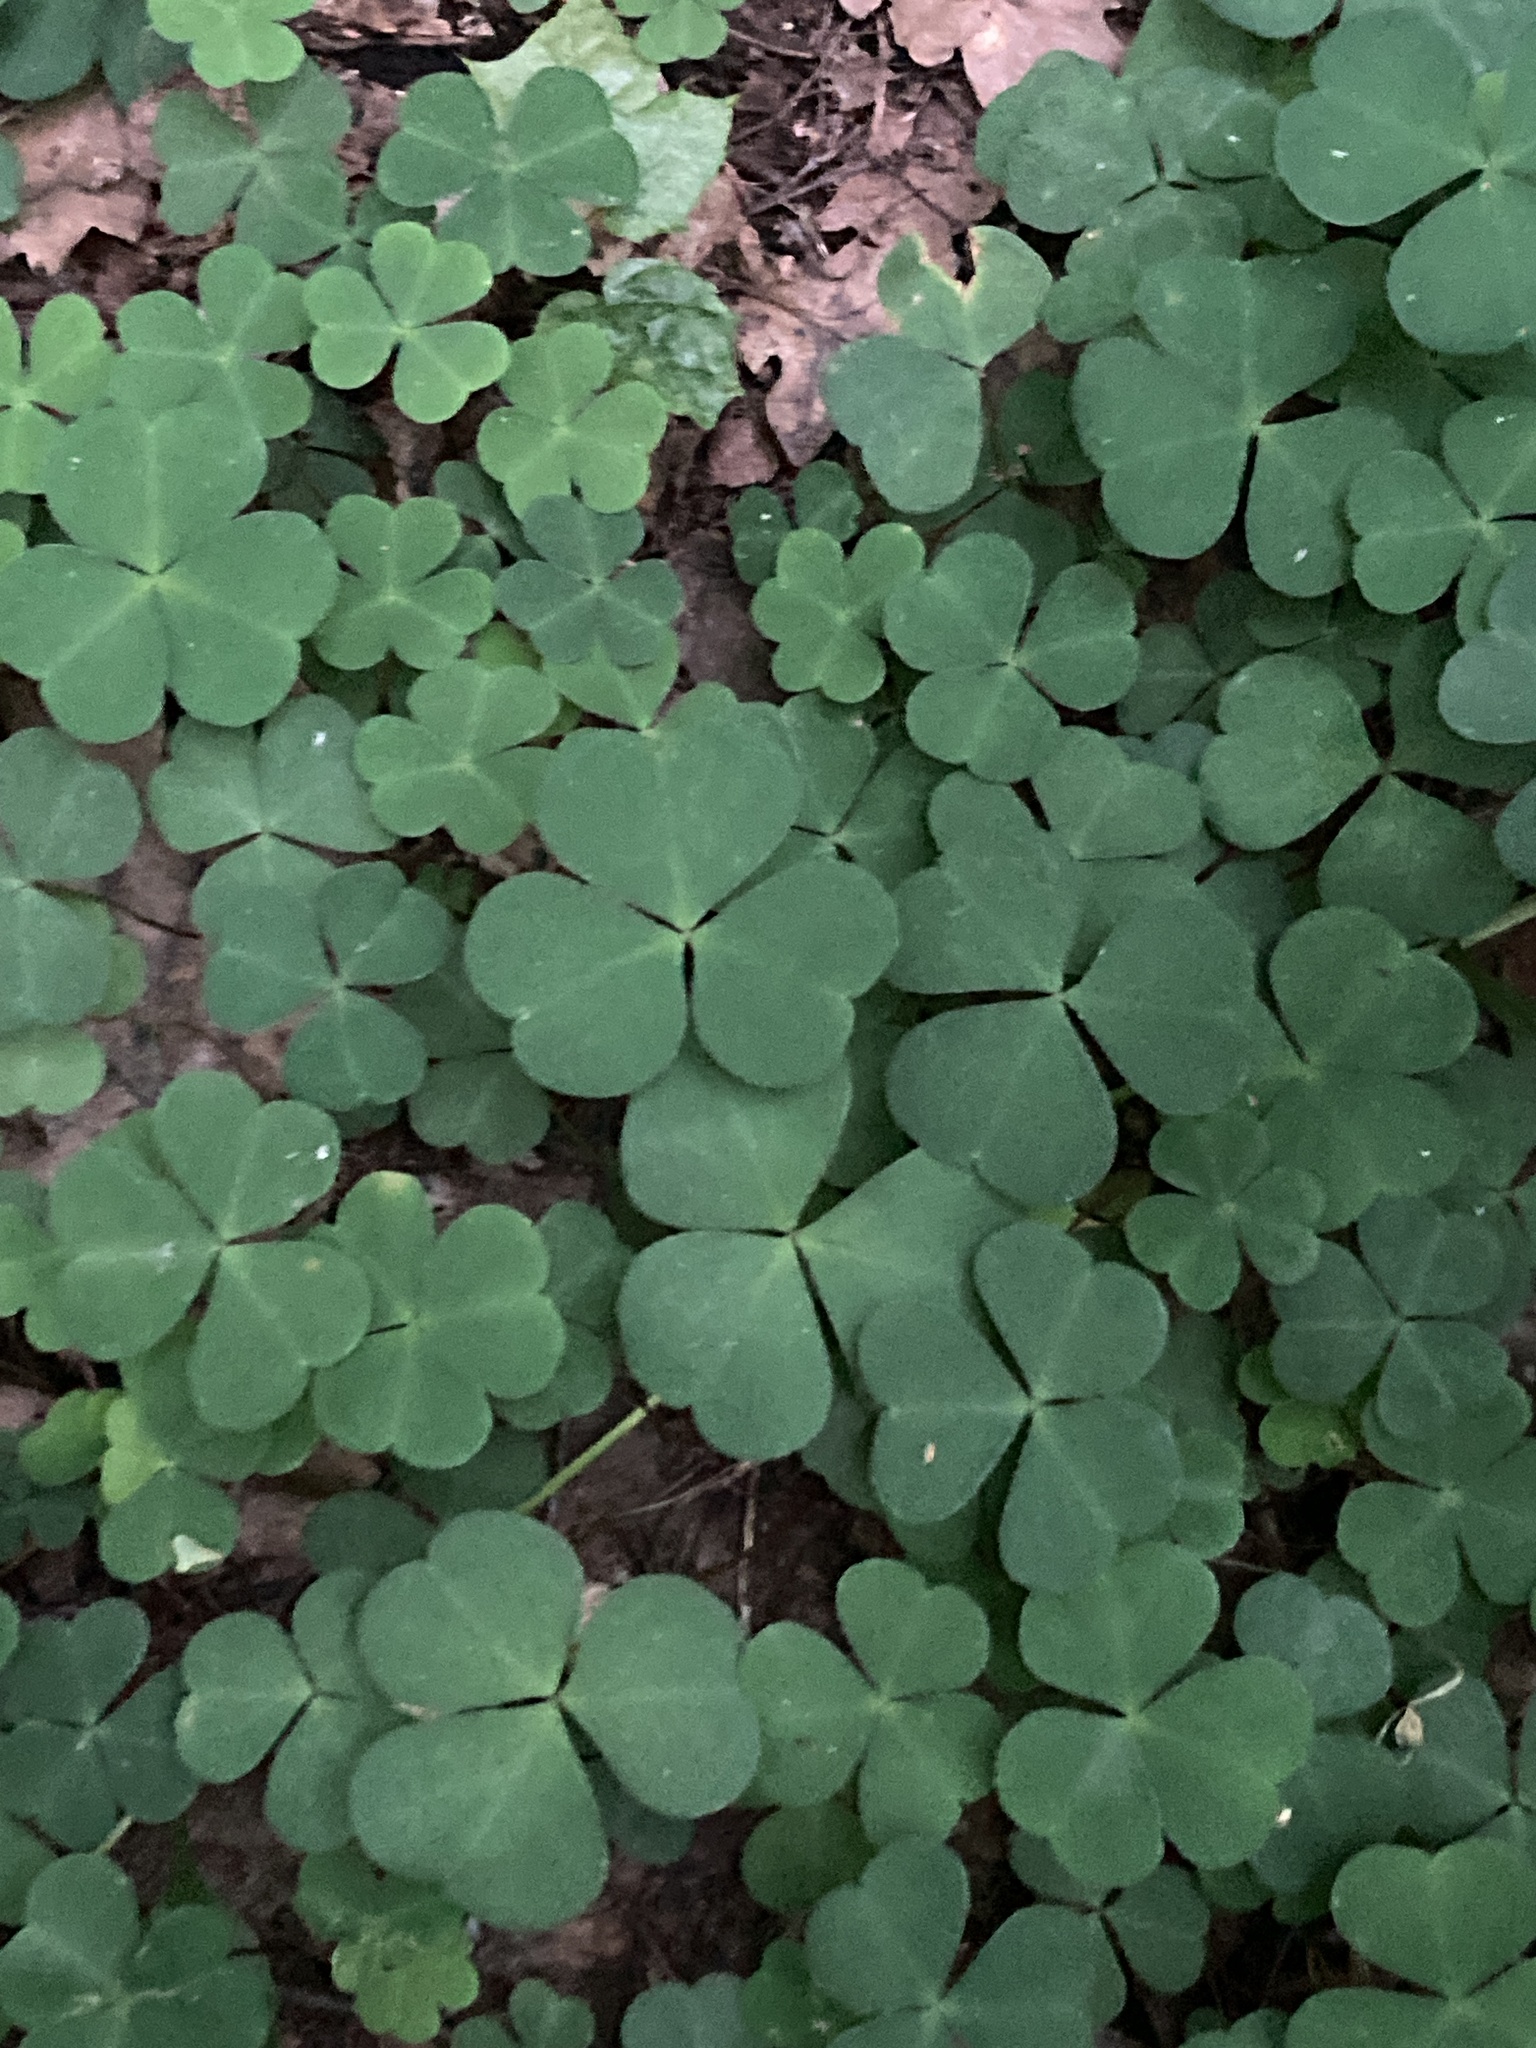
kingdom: Plantae
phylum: Tracheophyta
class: Magnoliopsida
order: Oxalidales
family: Oxalidaceae
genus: Oxalis
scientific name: Oxalis acetosella
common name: Wood-sorrel
